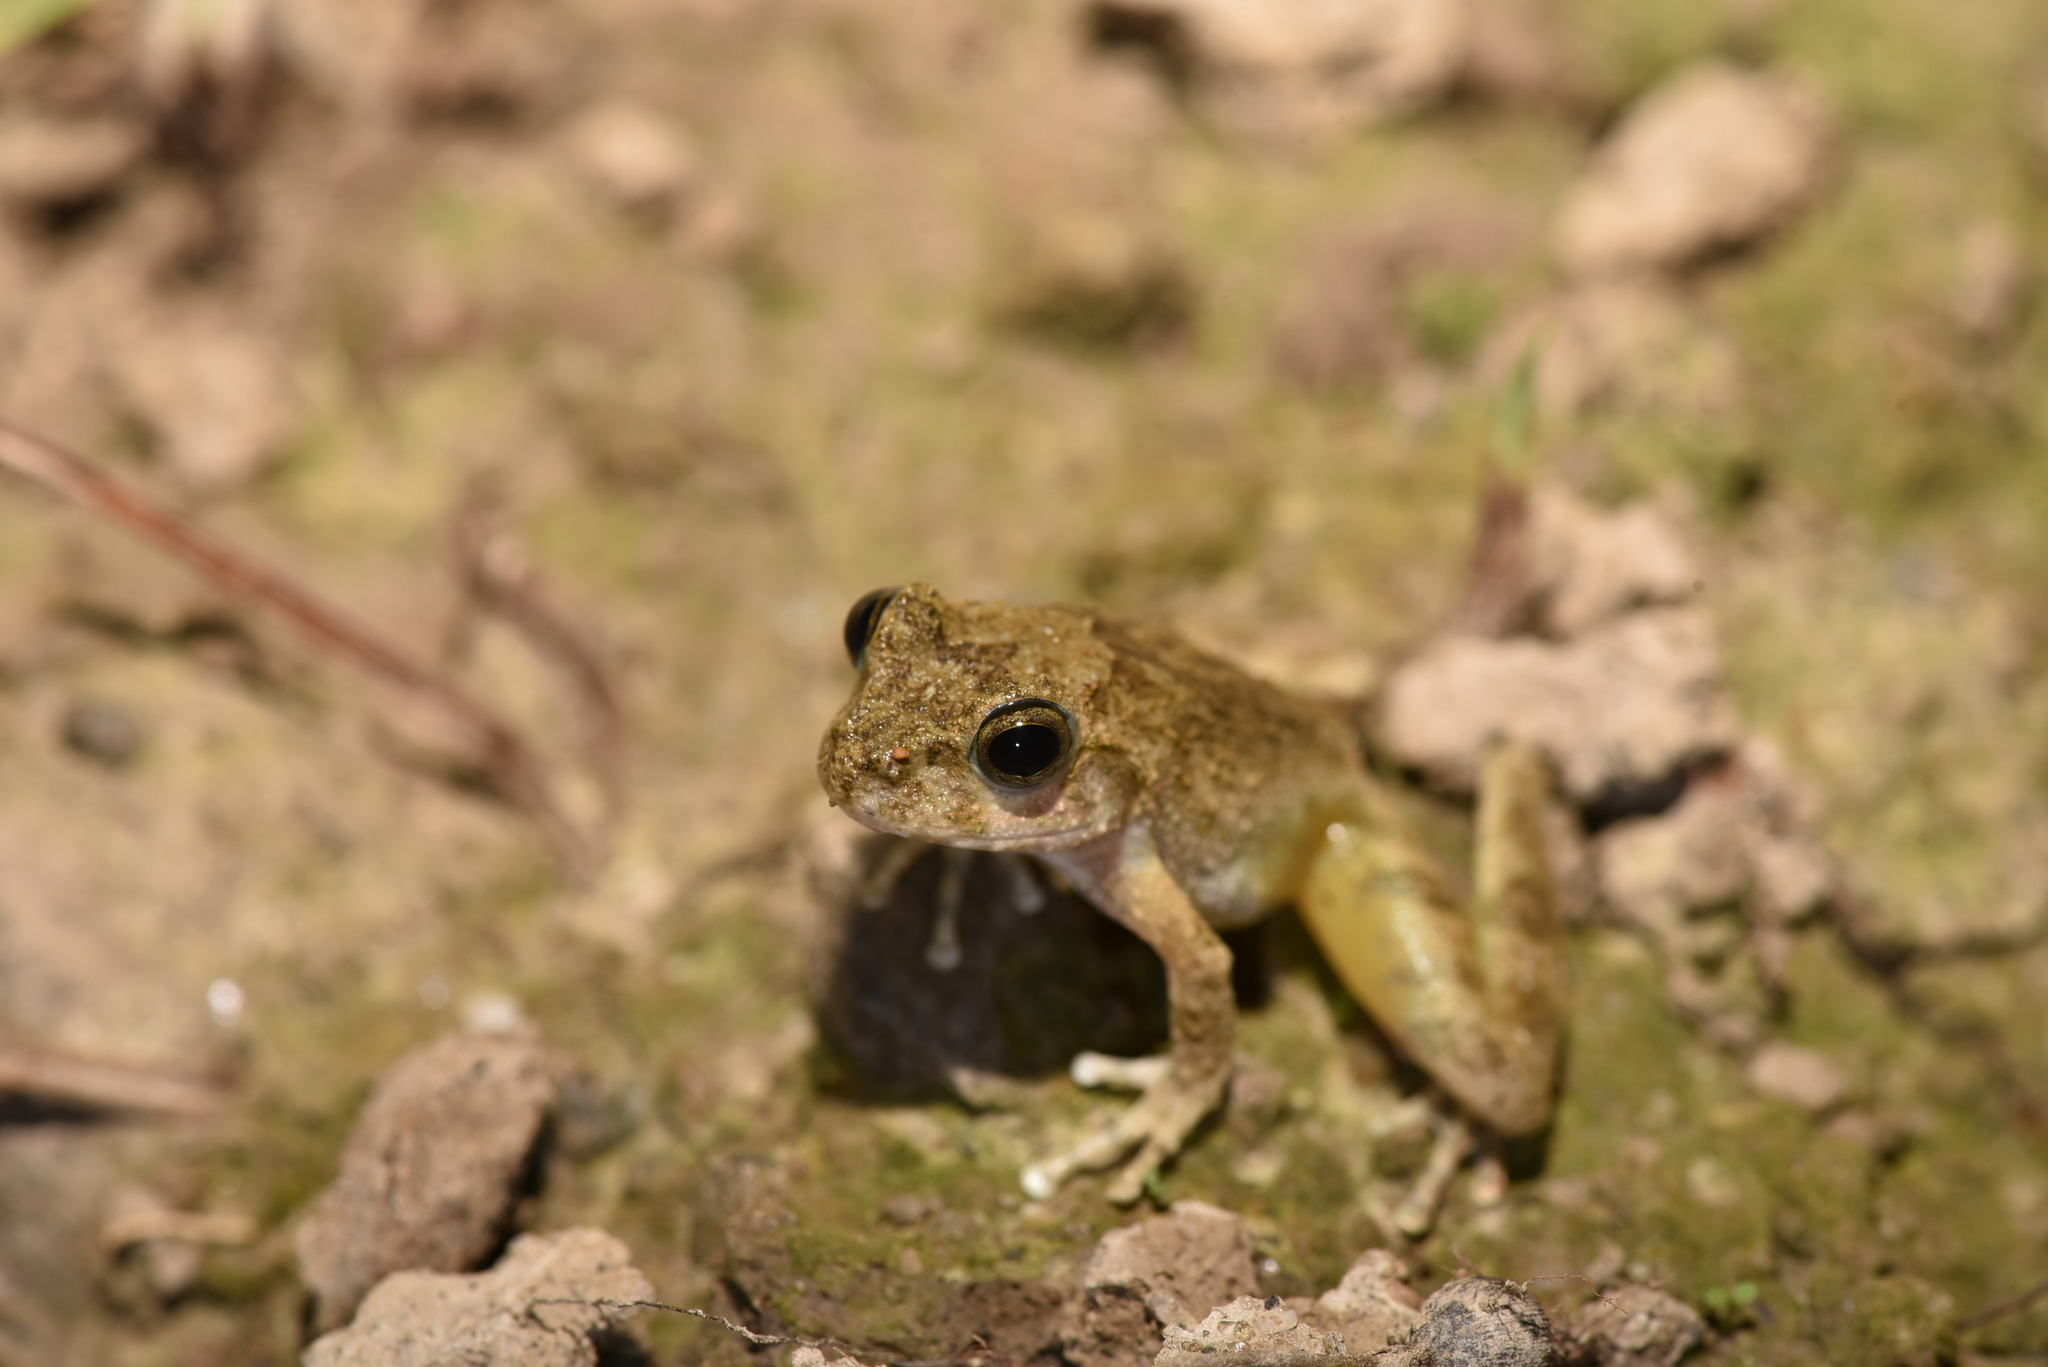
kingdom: Animalia
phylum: Chordata
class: Amphibia
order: Anura
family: Rhacophoridae
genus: Buergeria
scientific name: Buergeria otai
